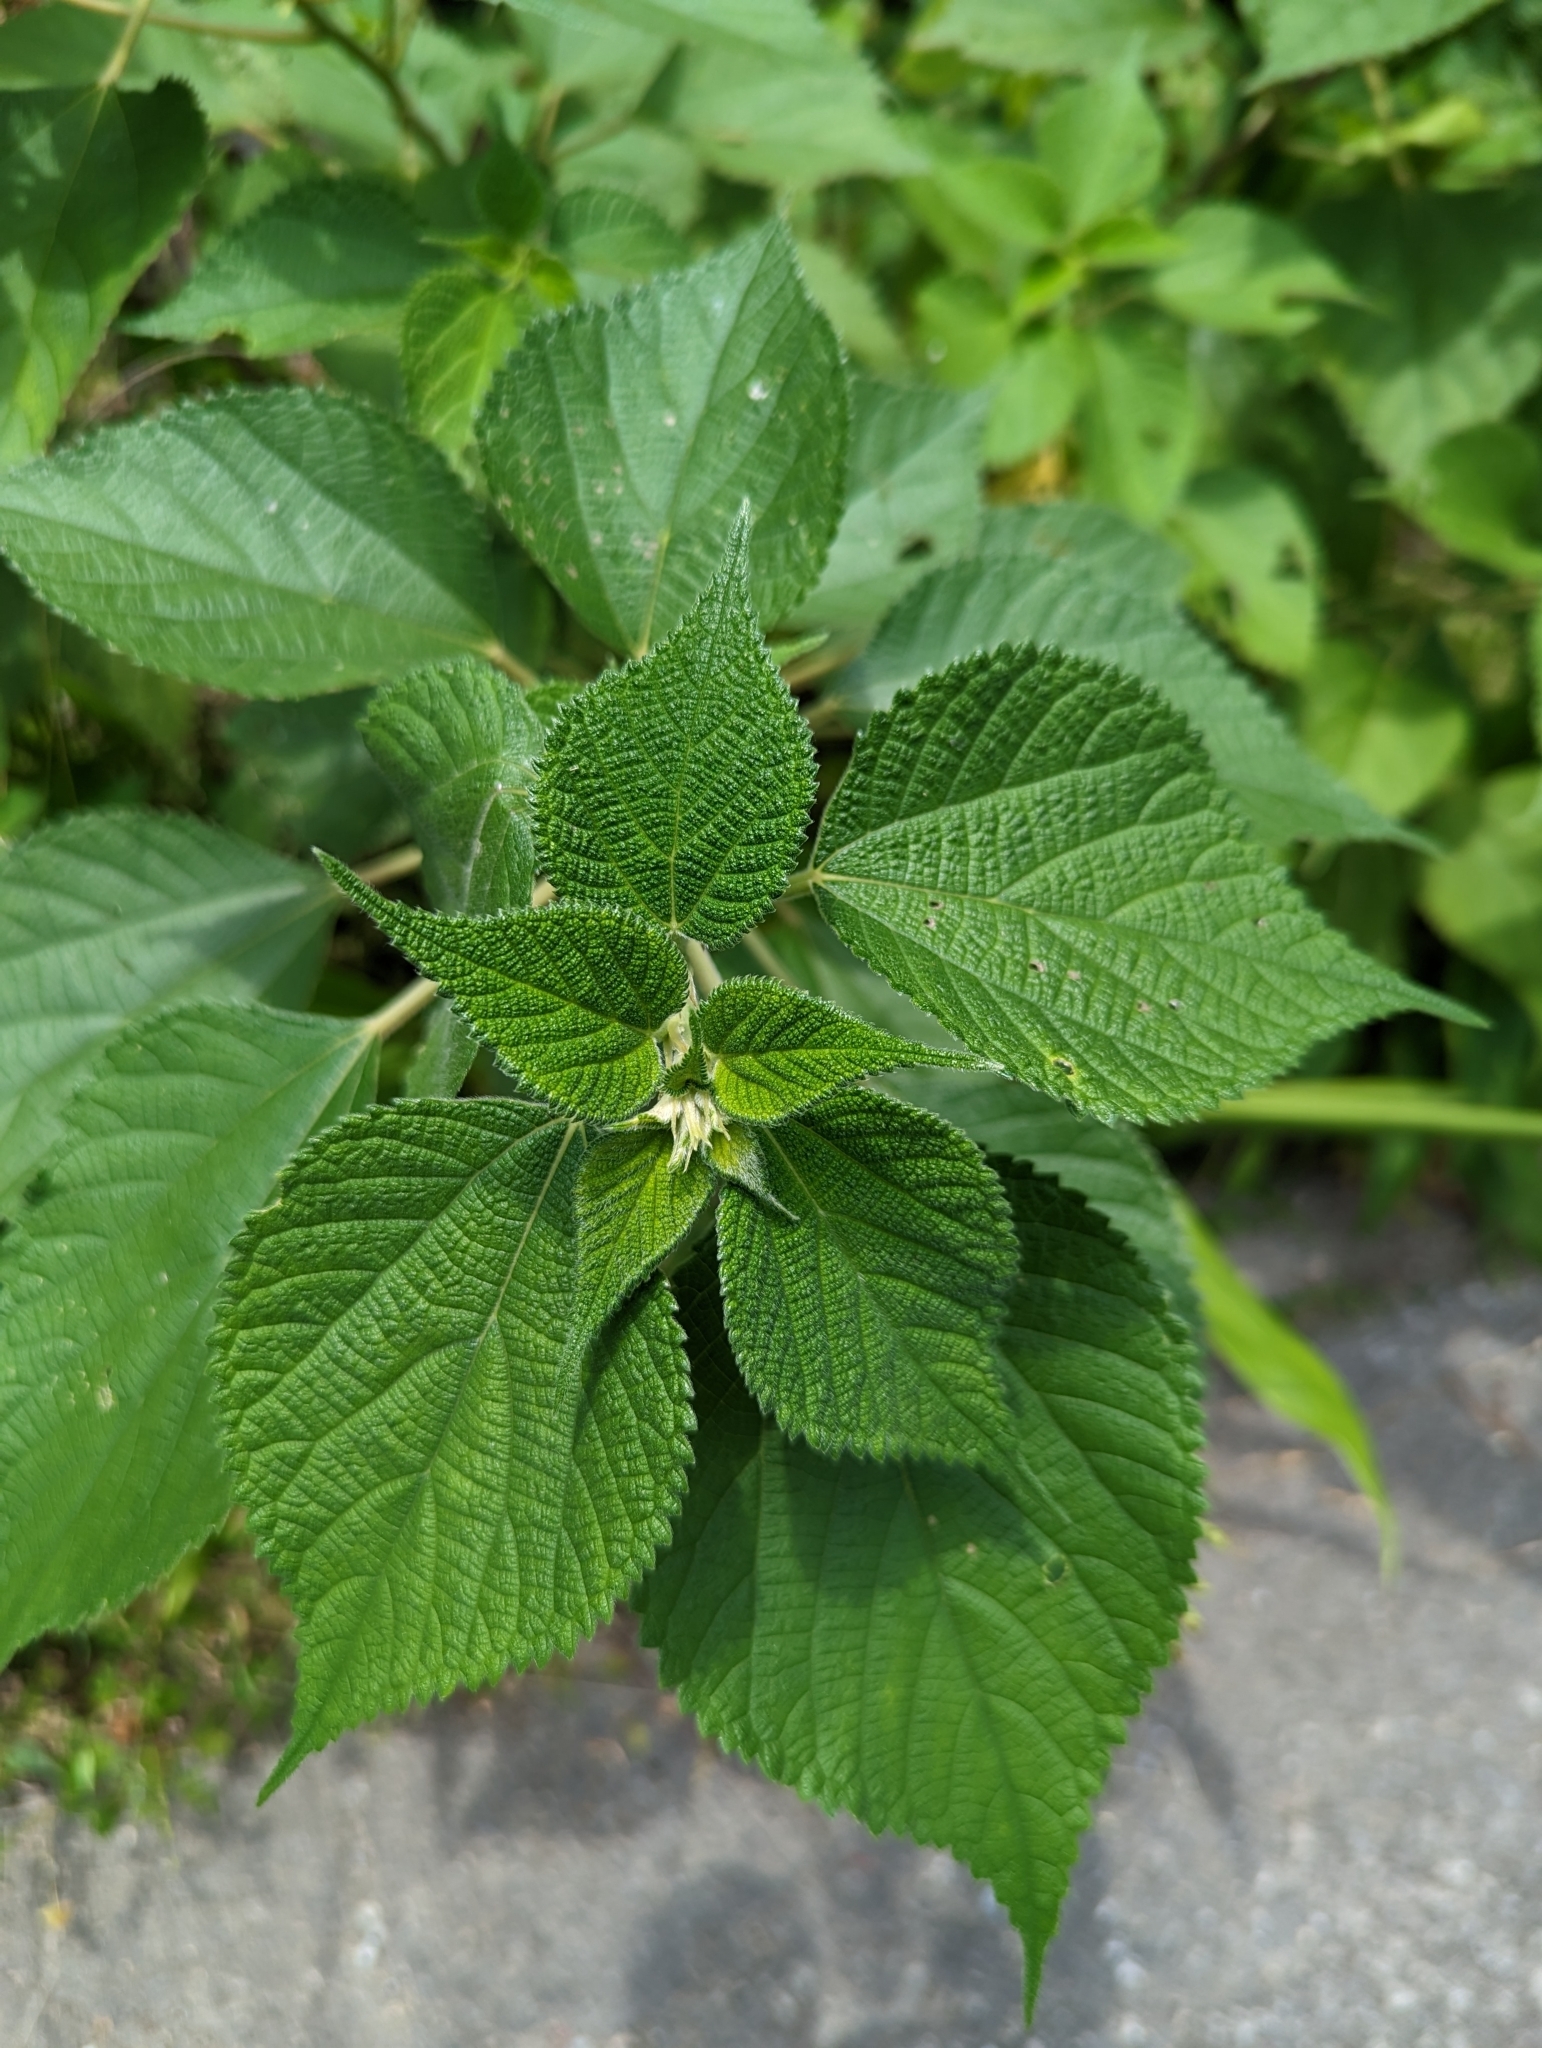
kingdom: Plantae
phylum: Tracheophyta
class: Magnoliopsida
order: Lamiales
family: Verbenaceae
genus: Lantana
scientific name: Lantana camara
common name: Lantana
